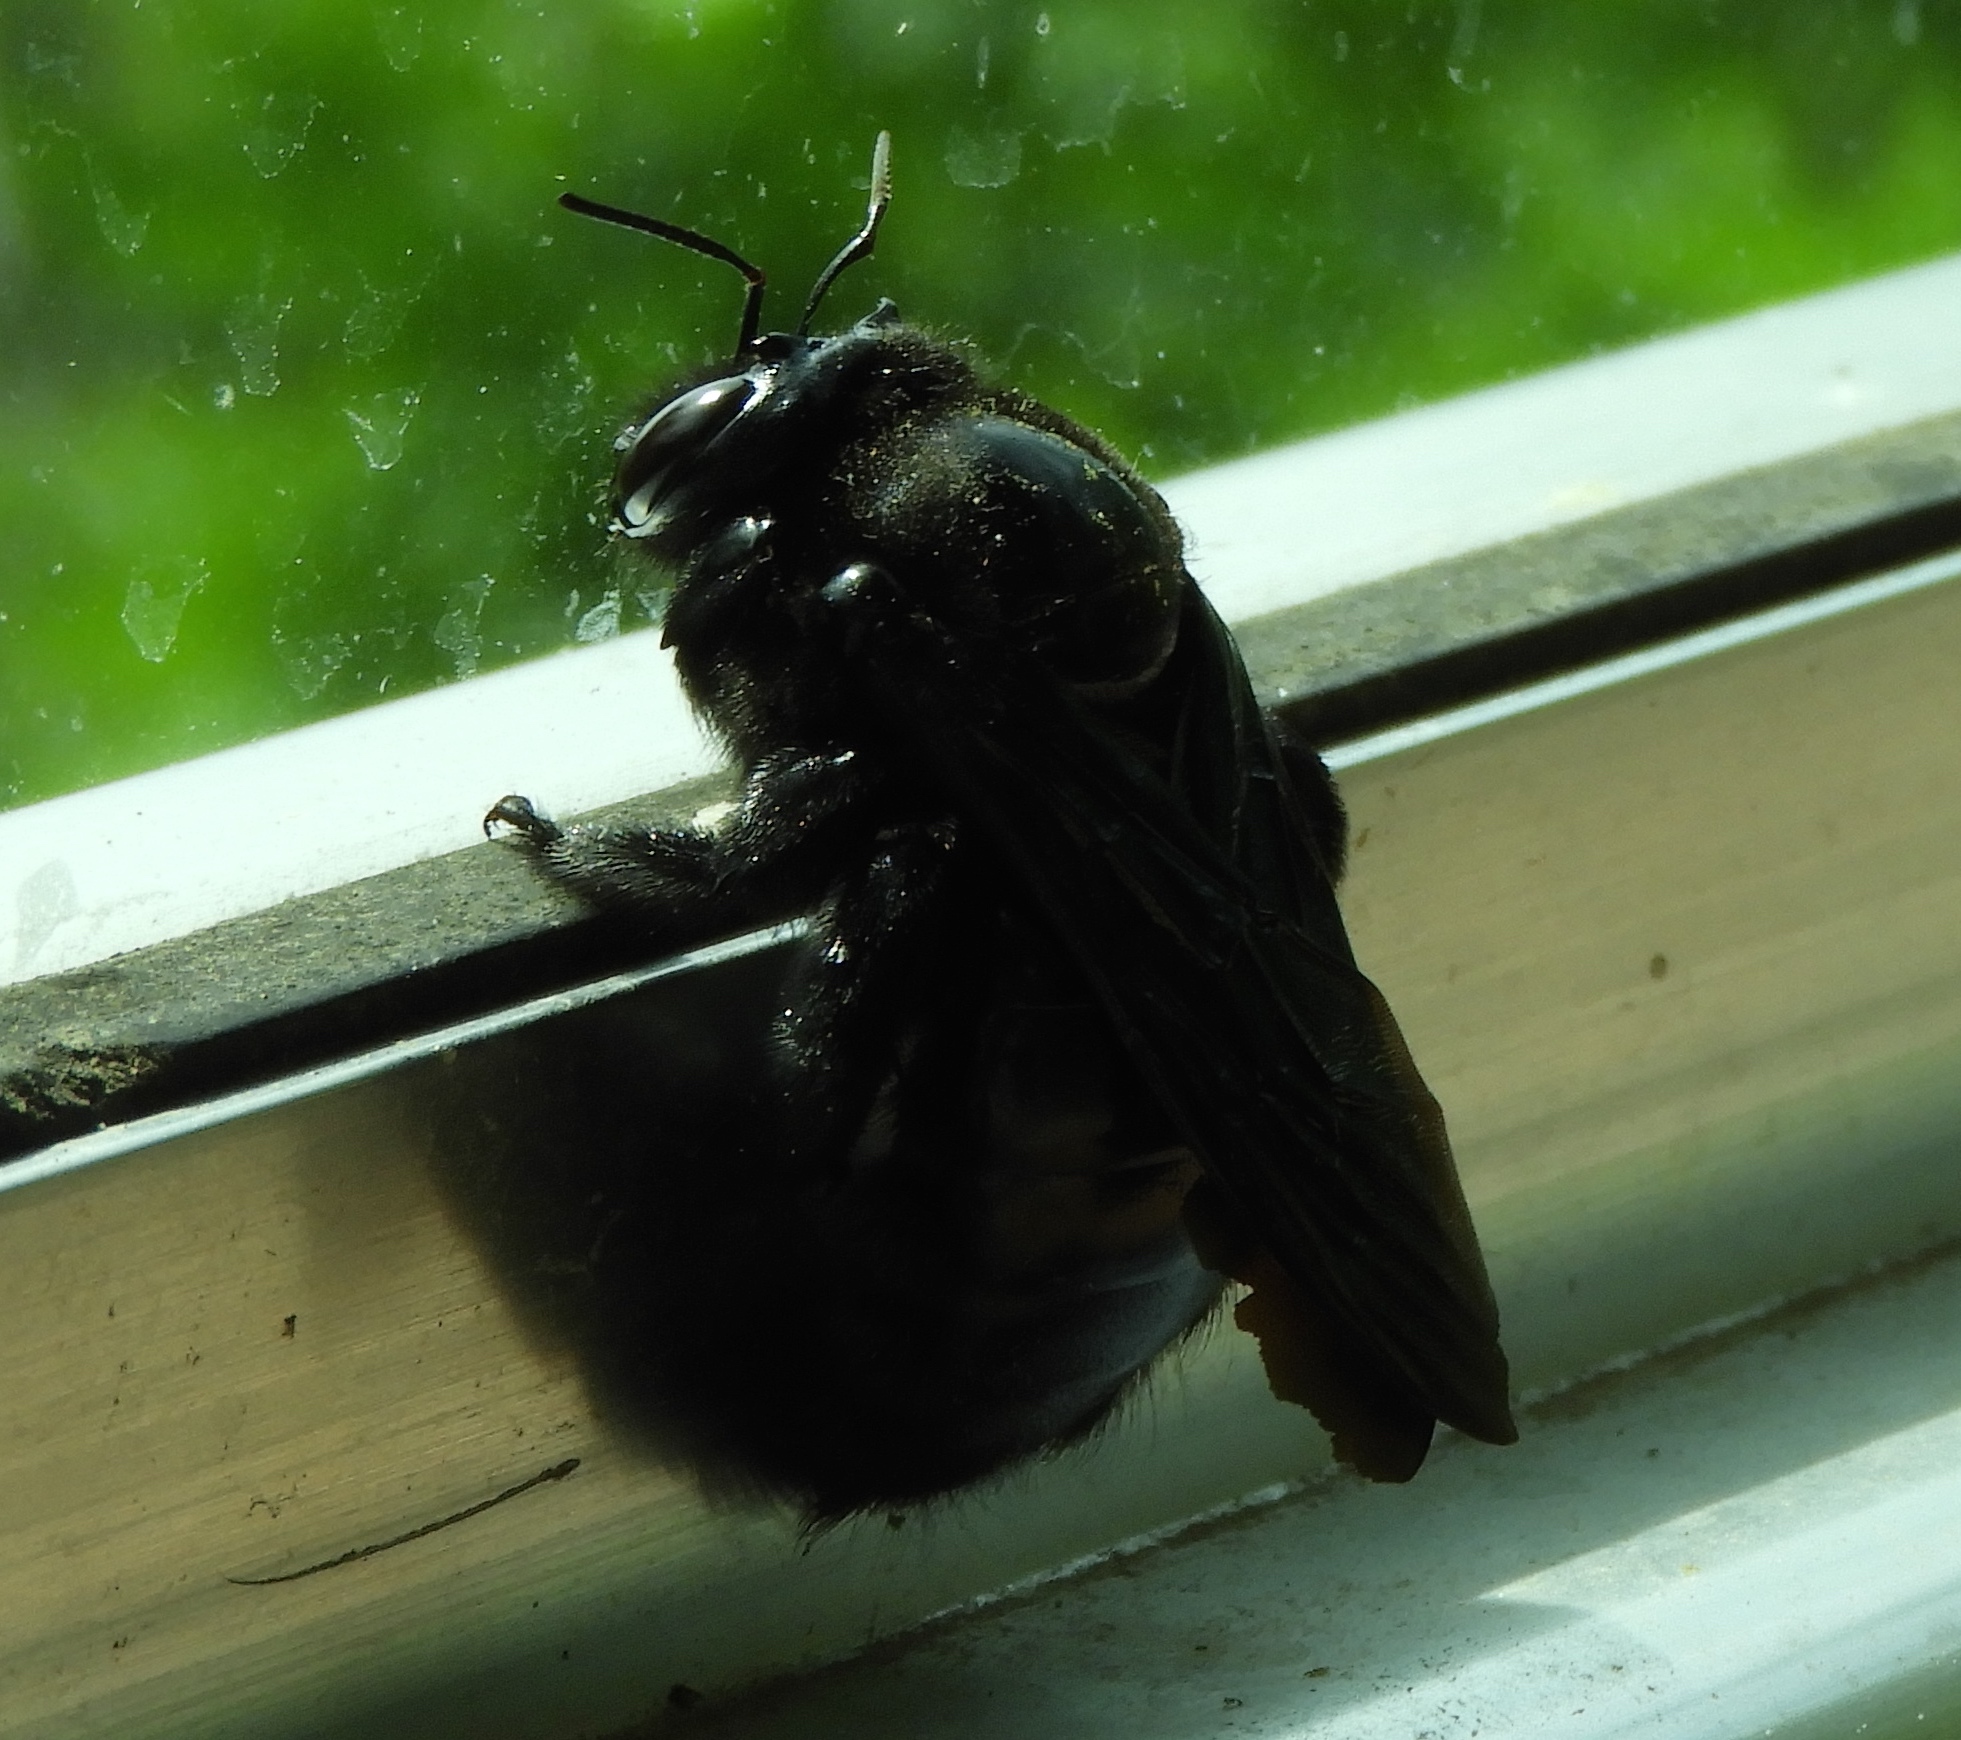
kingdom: Animalia
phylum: Arthropoda
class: Insecta
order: Hymenoptera
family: Apidae
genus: Xylocopa
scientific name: Xylocopa fimbriata
